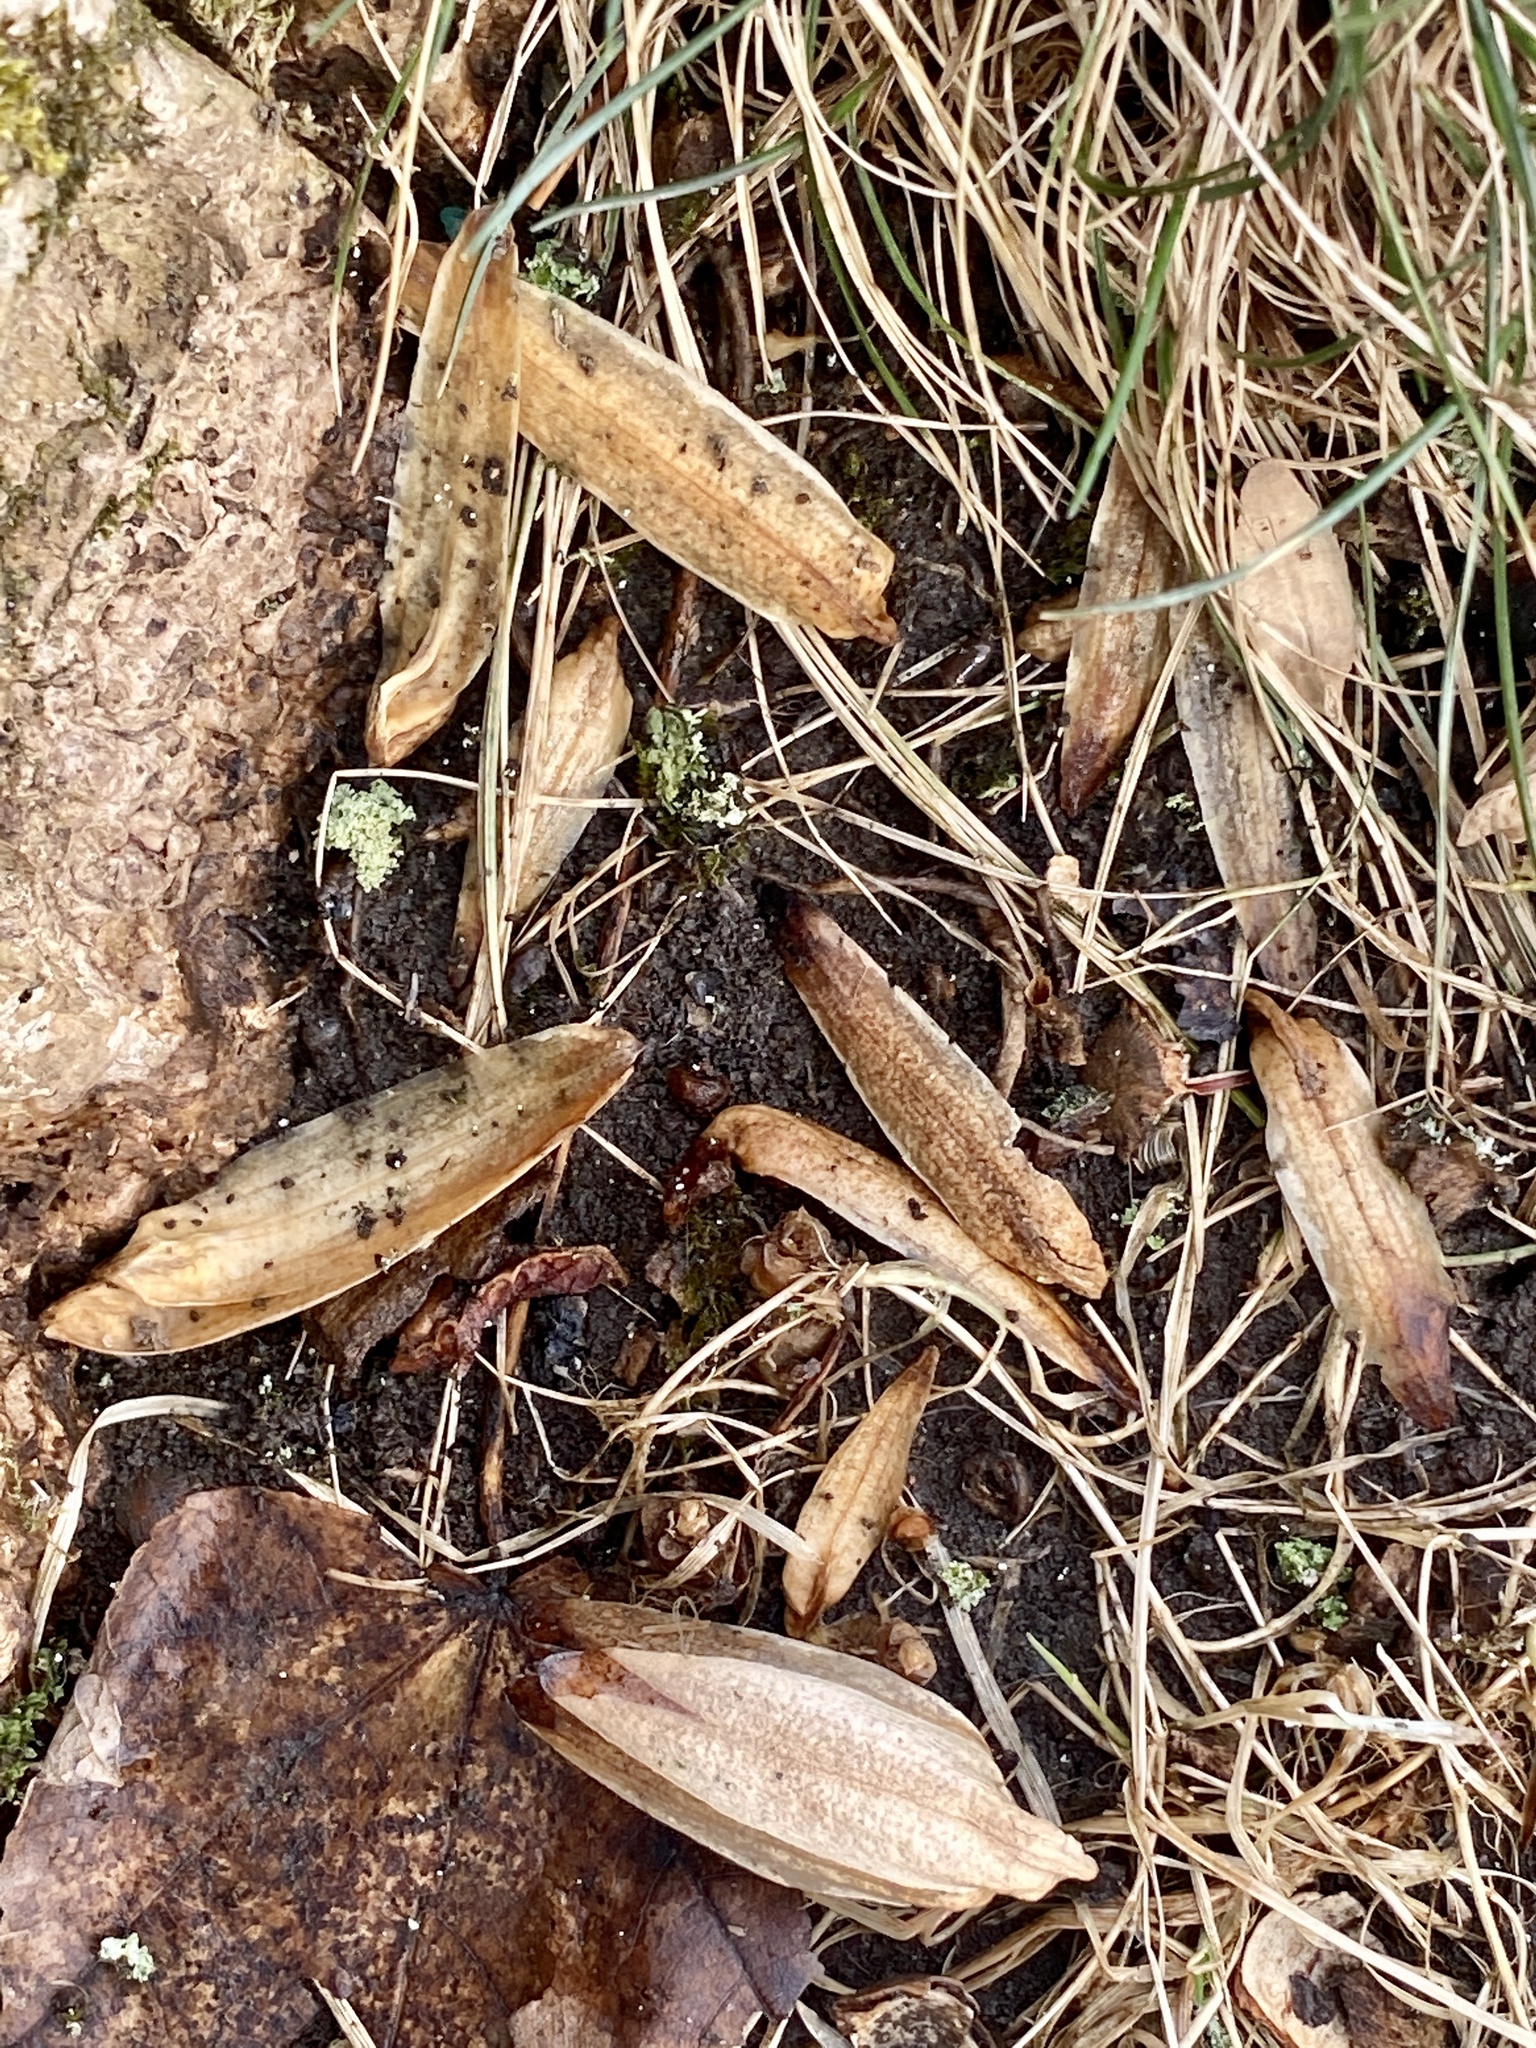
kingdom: Plantae
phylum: Tracheophyta
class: Magnoliopsida
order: Magnoliales
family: Magnoliaceae
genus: Liriodendron
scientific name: Liriodendron tulipifera
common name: Tulip tree
